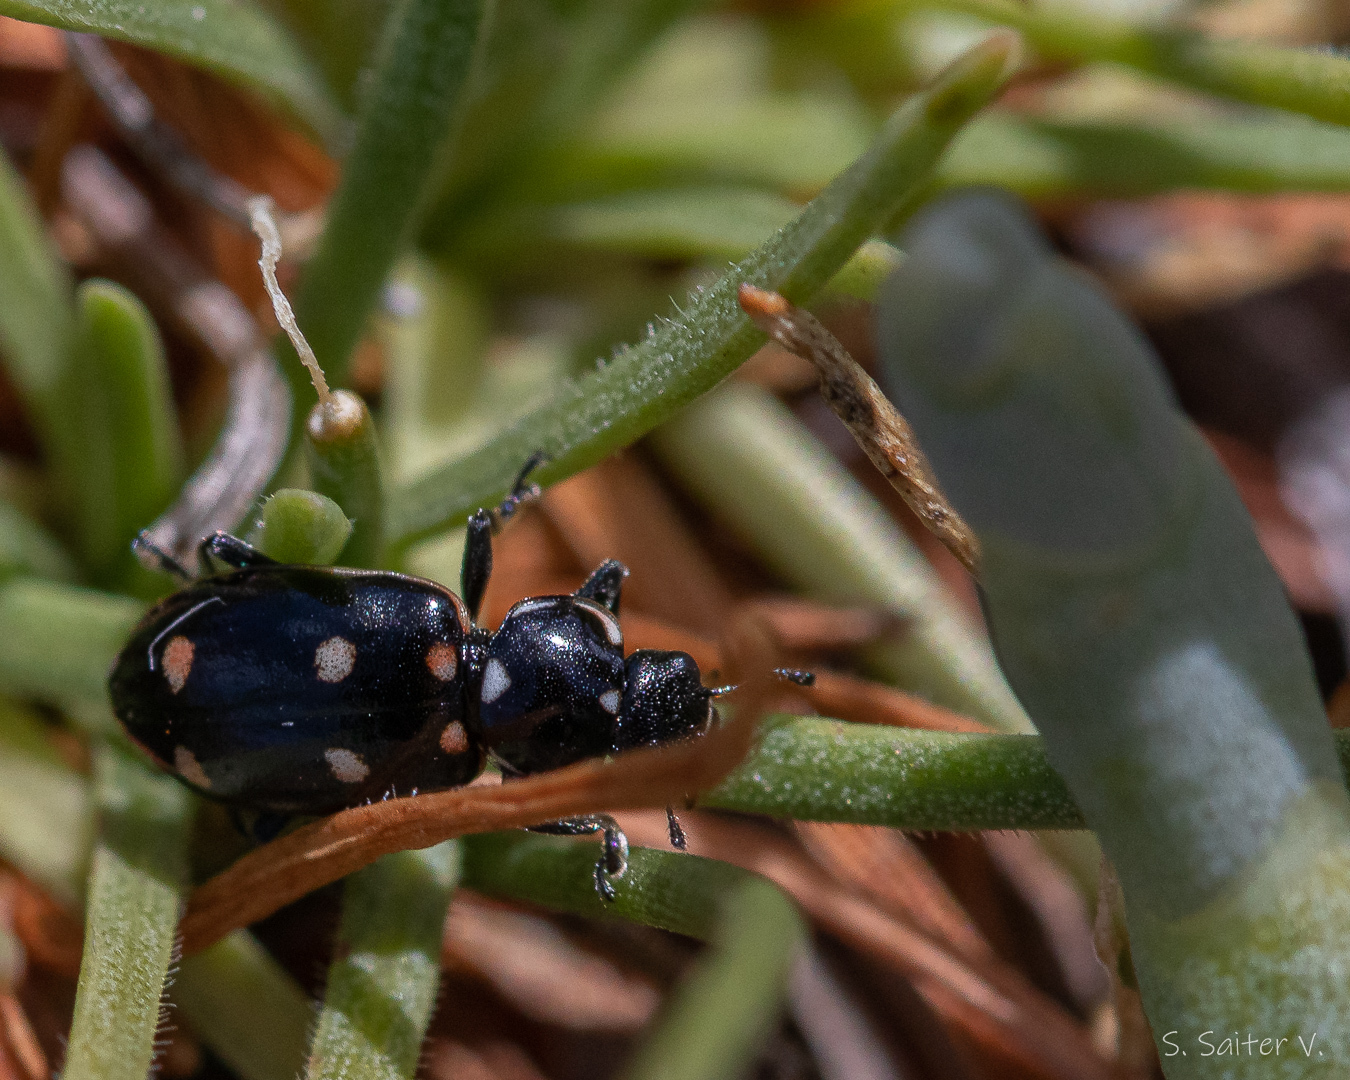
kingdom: Animalia
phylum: Arthropoda
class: Insecta
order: Coleoptera
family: Coccinellidae
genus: Eriopis
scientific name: Eriopis magellanica
